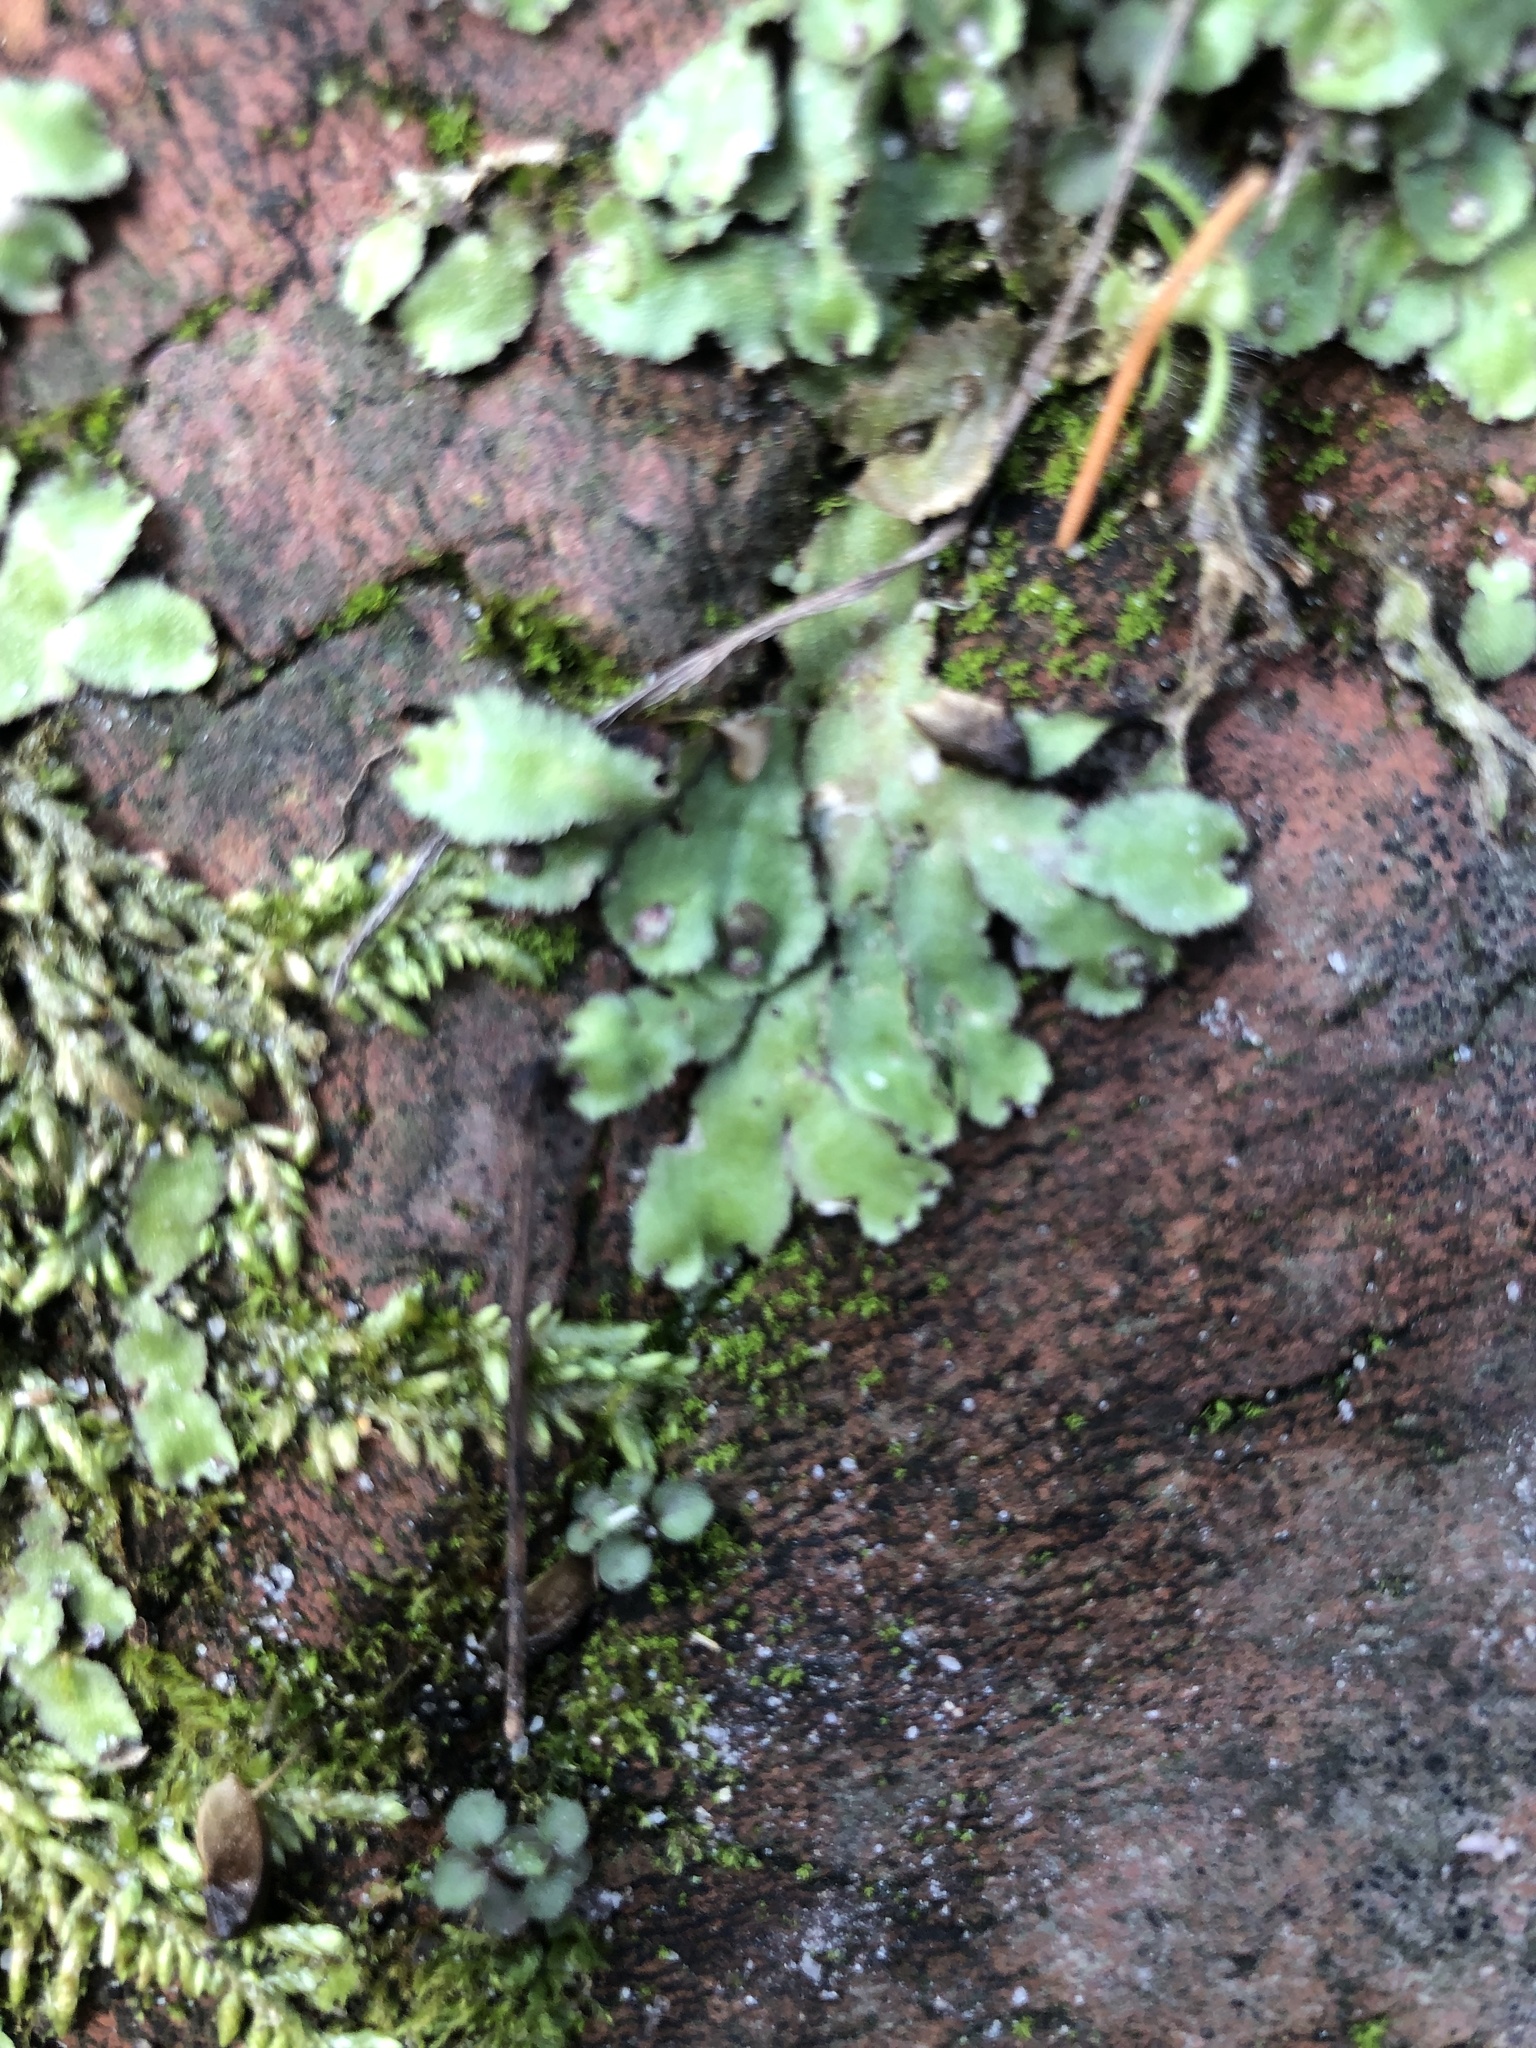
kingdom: Plantae
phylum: Marchantiophyta
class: Marchantiopsida
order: Marchantiales
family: Aytoniaceae
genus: Reboulia
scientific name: Reboulia hemisphaerica
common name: Purple-margined liverwort
